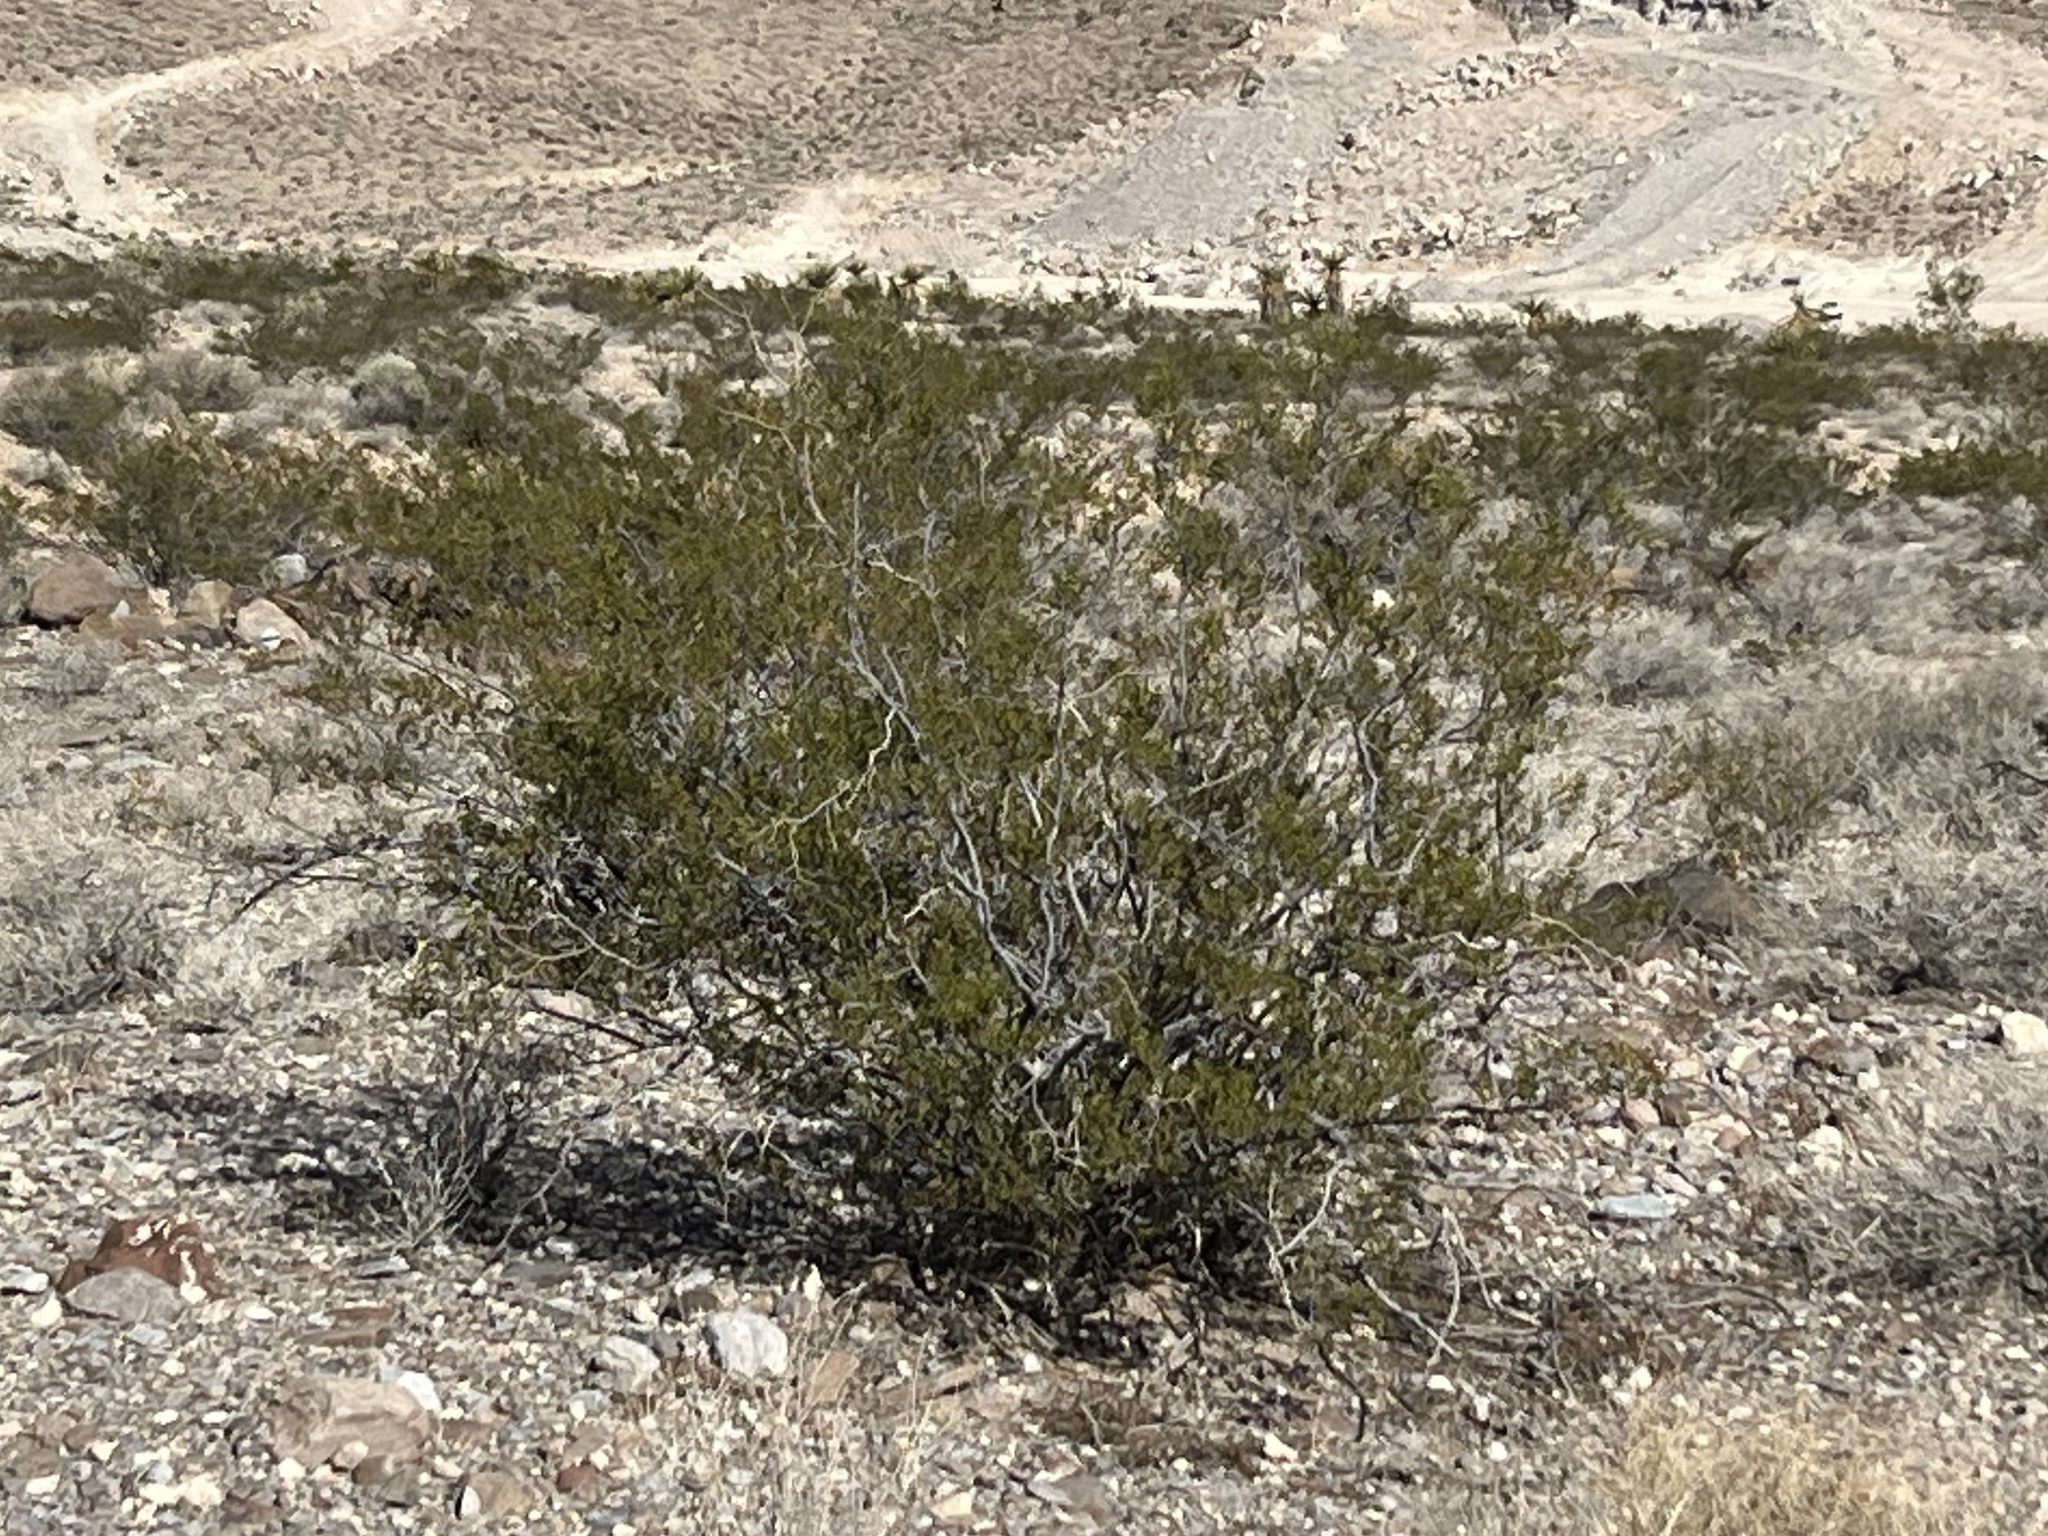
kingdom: Plantae
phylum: Tracheophyta
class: Magnoliopsida
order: Zygophyllales
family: Zygophyllaceae
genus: Larrea
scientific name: Larrea tridentata
